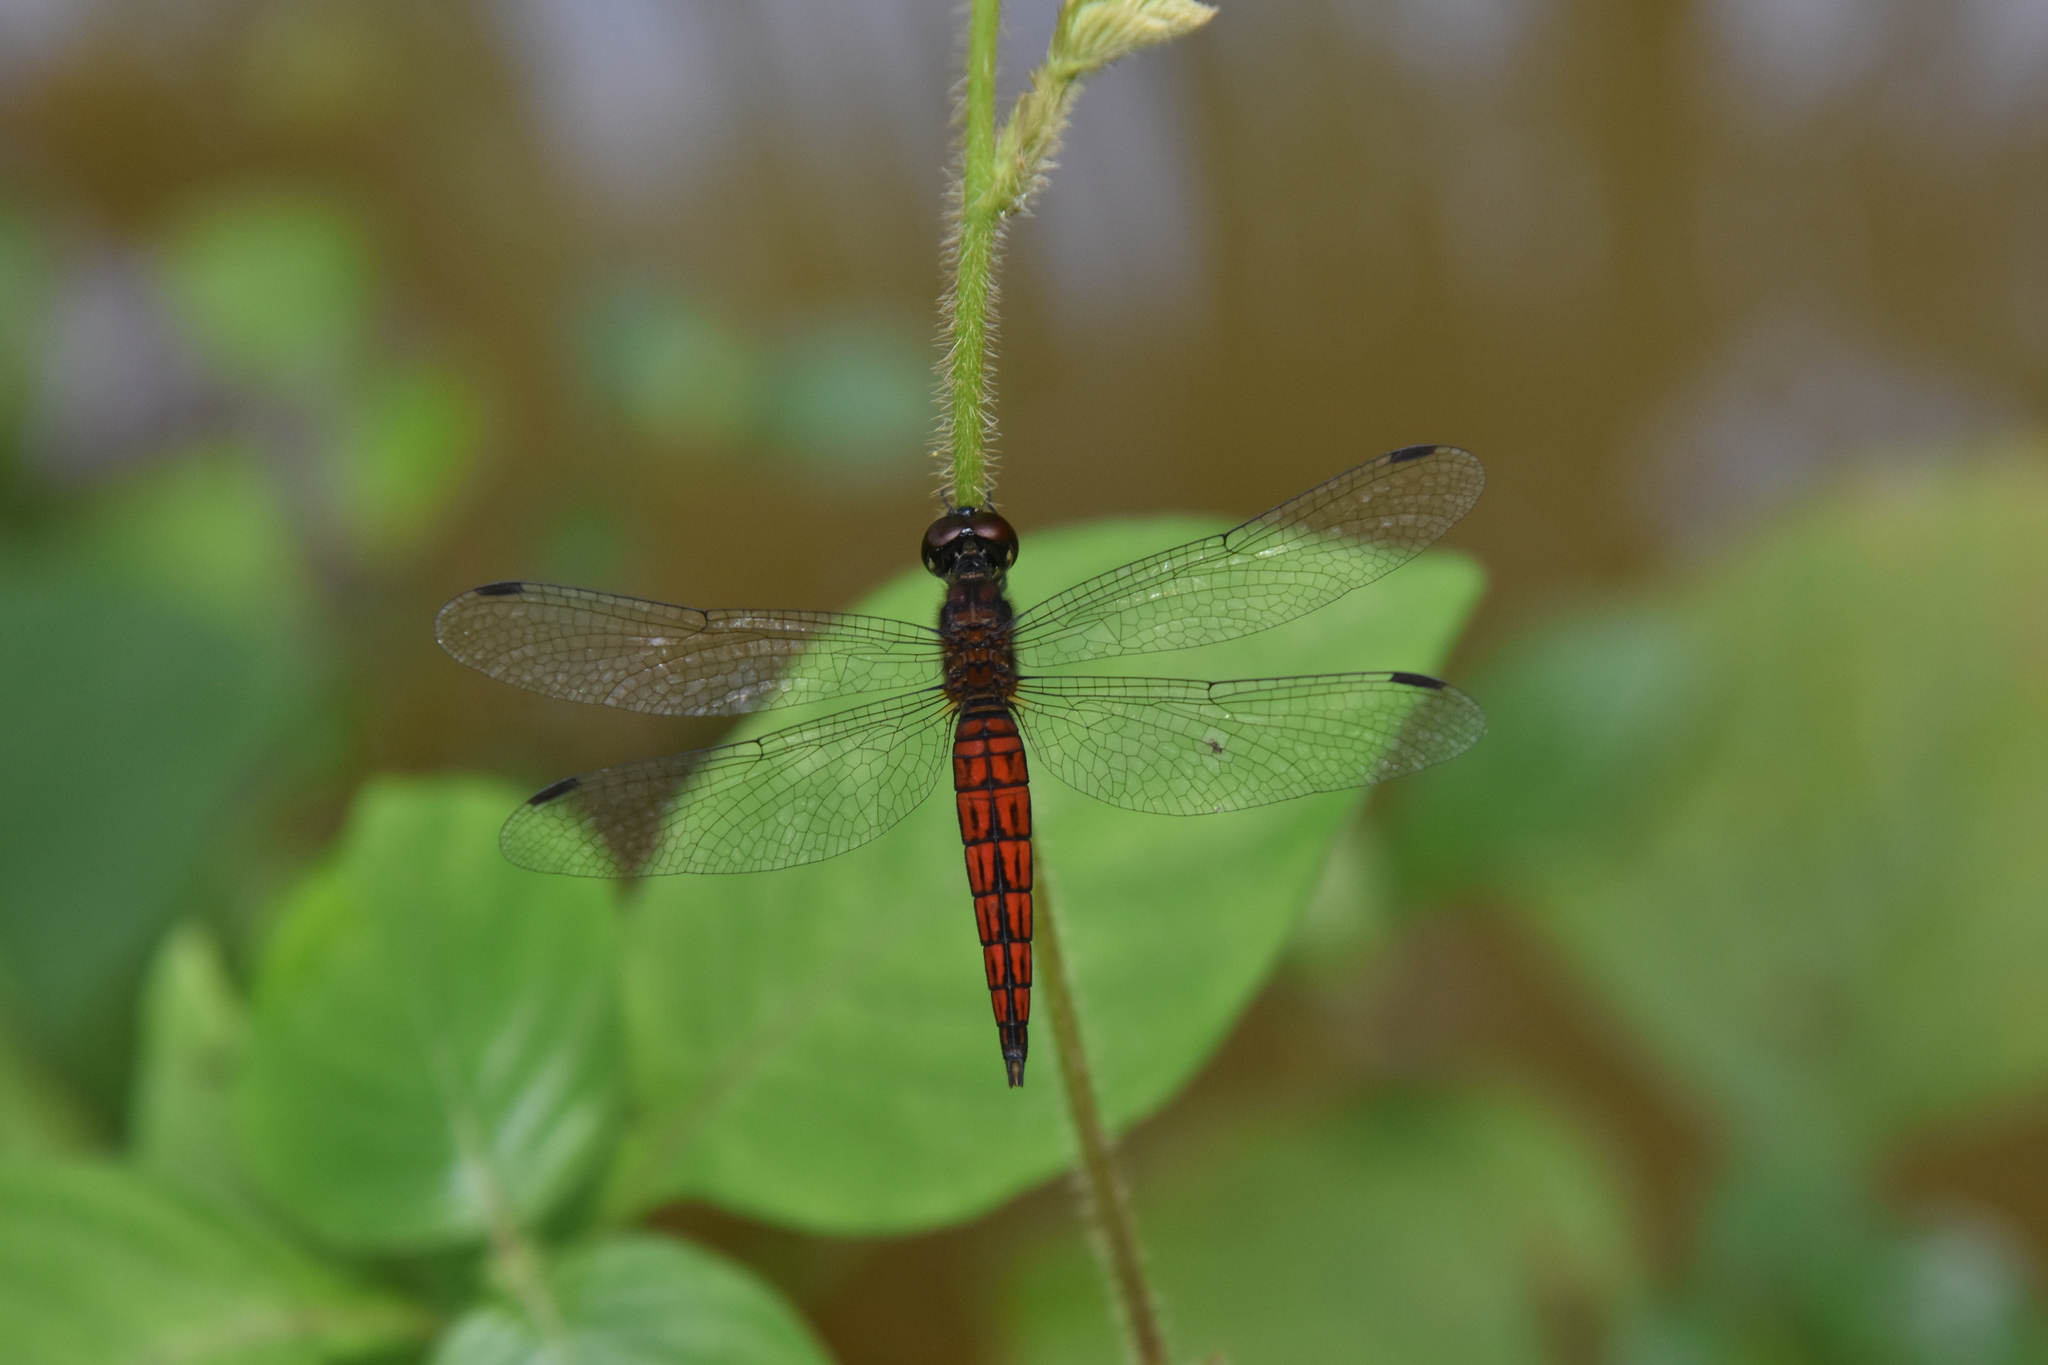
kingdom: Animalia
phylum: Arthropoda
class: Insecta
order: Odonata
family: Libellulidae
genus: Lyriothemis
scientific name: Lyriothemis acigastra
